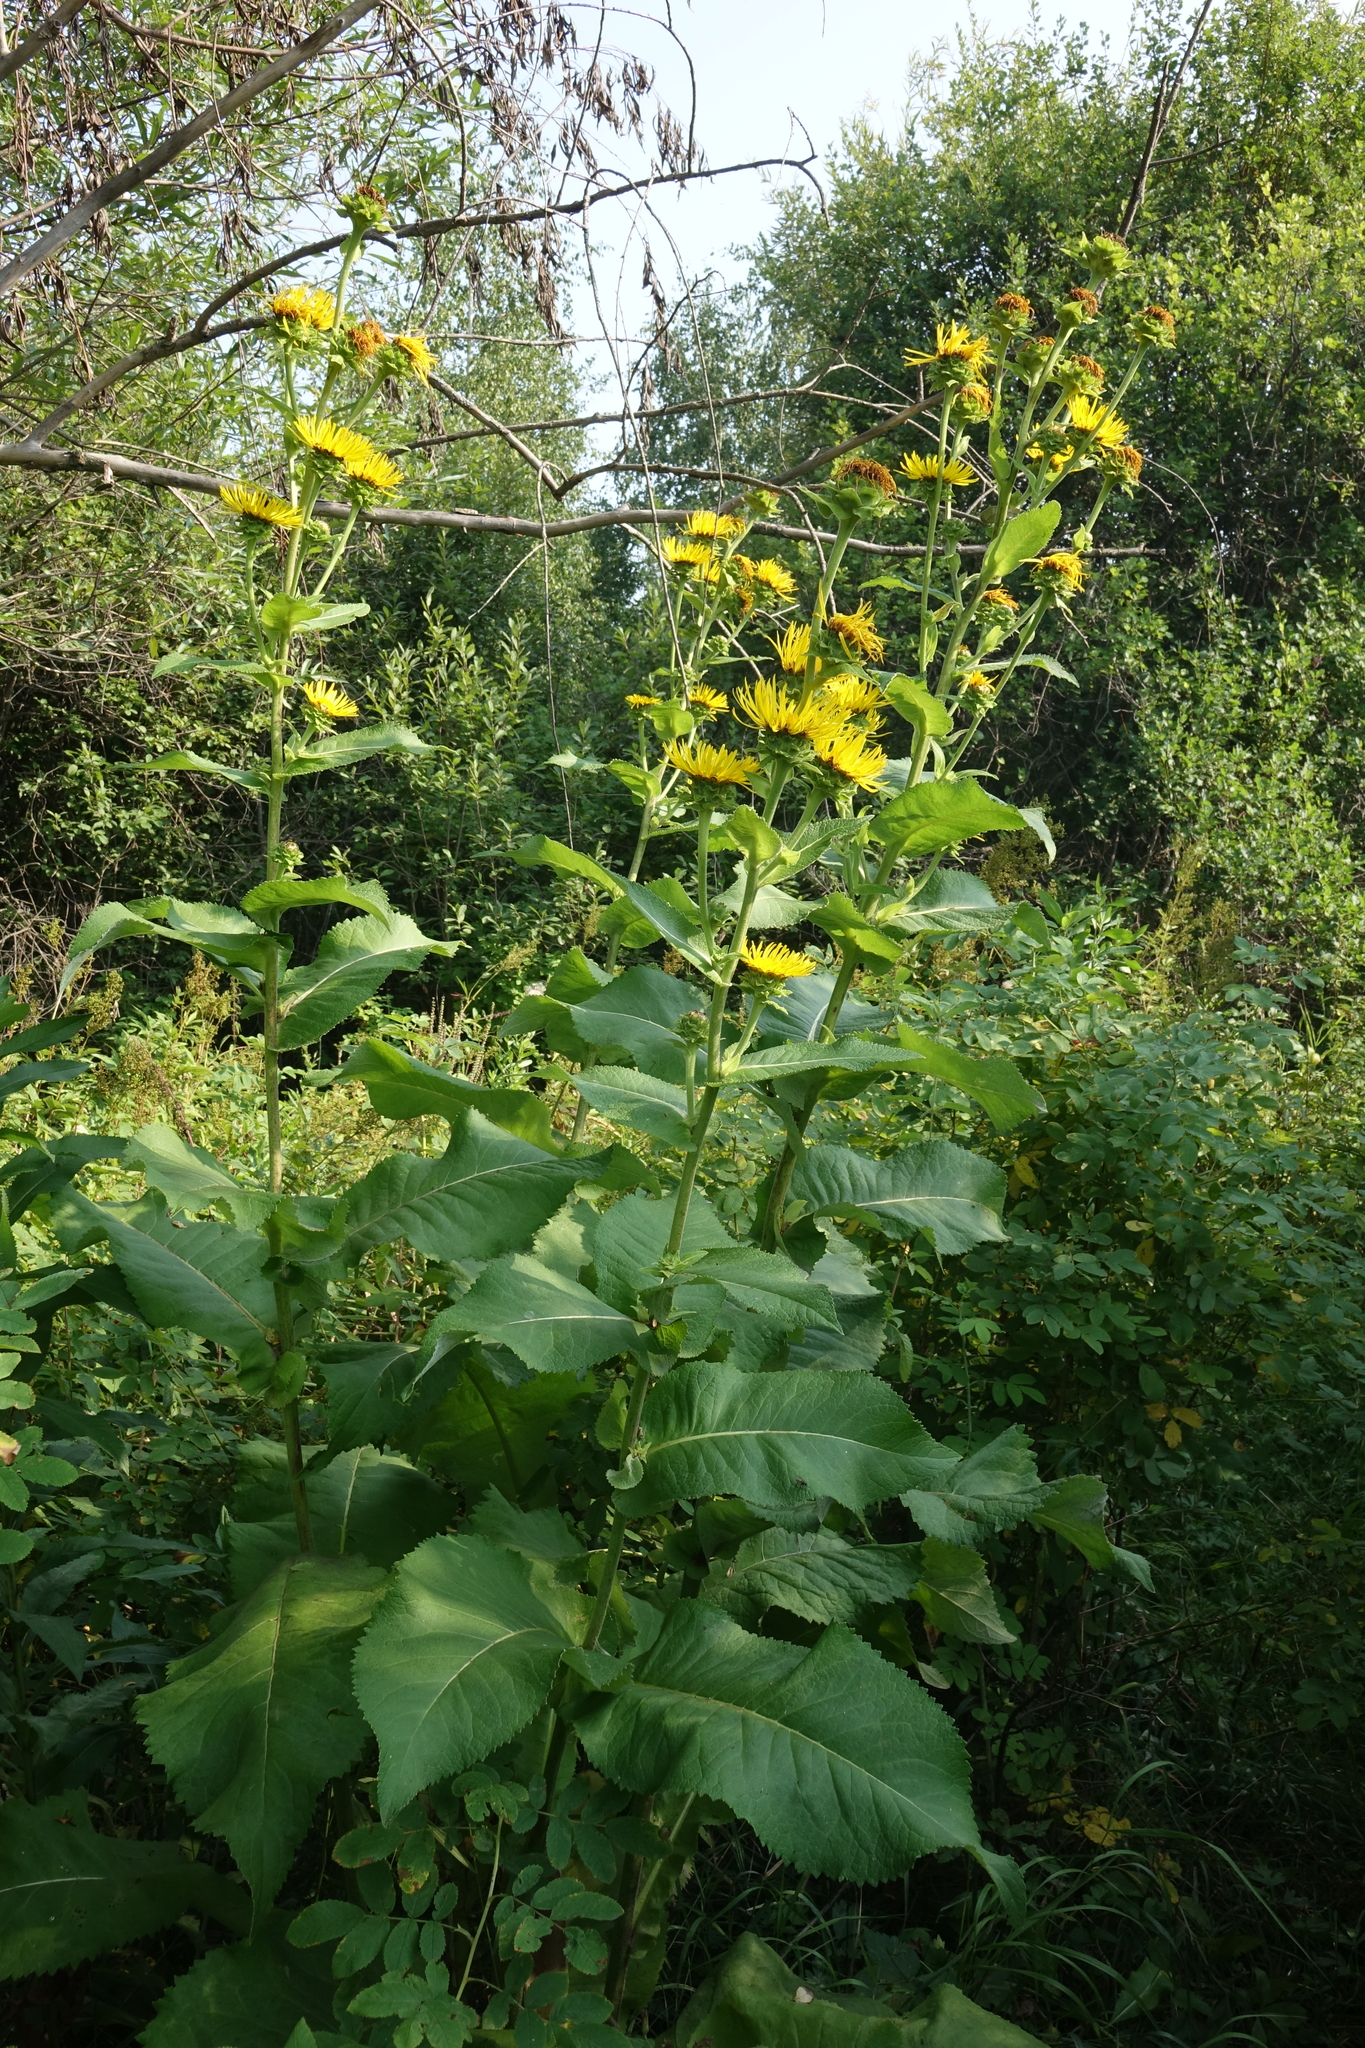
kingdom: Plantae
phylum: Tracheophyta
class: Magnoliopsida
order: Asterales
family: Asteraceae
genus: Inula
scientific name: Inula helenium
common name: Elecampane
